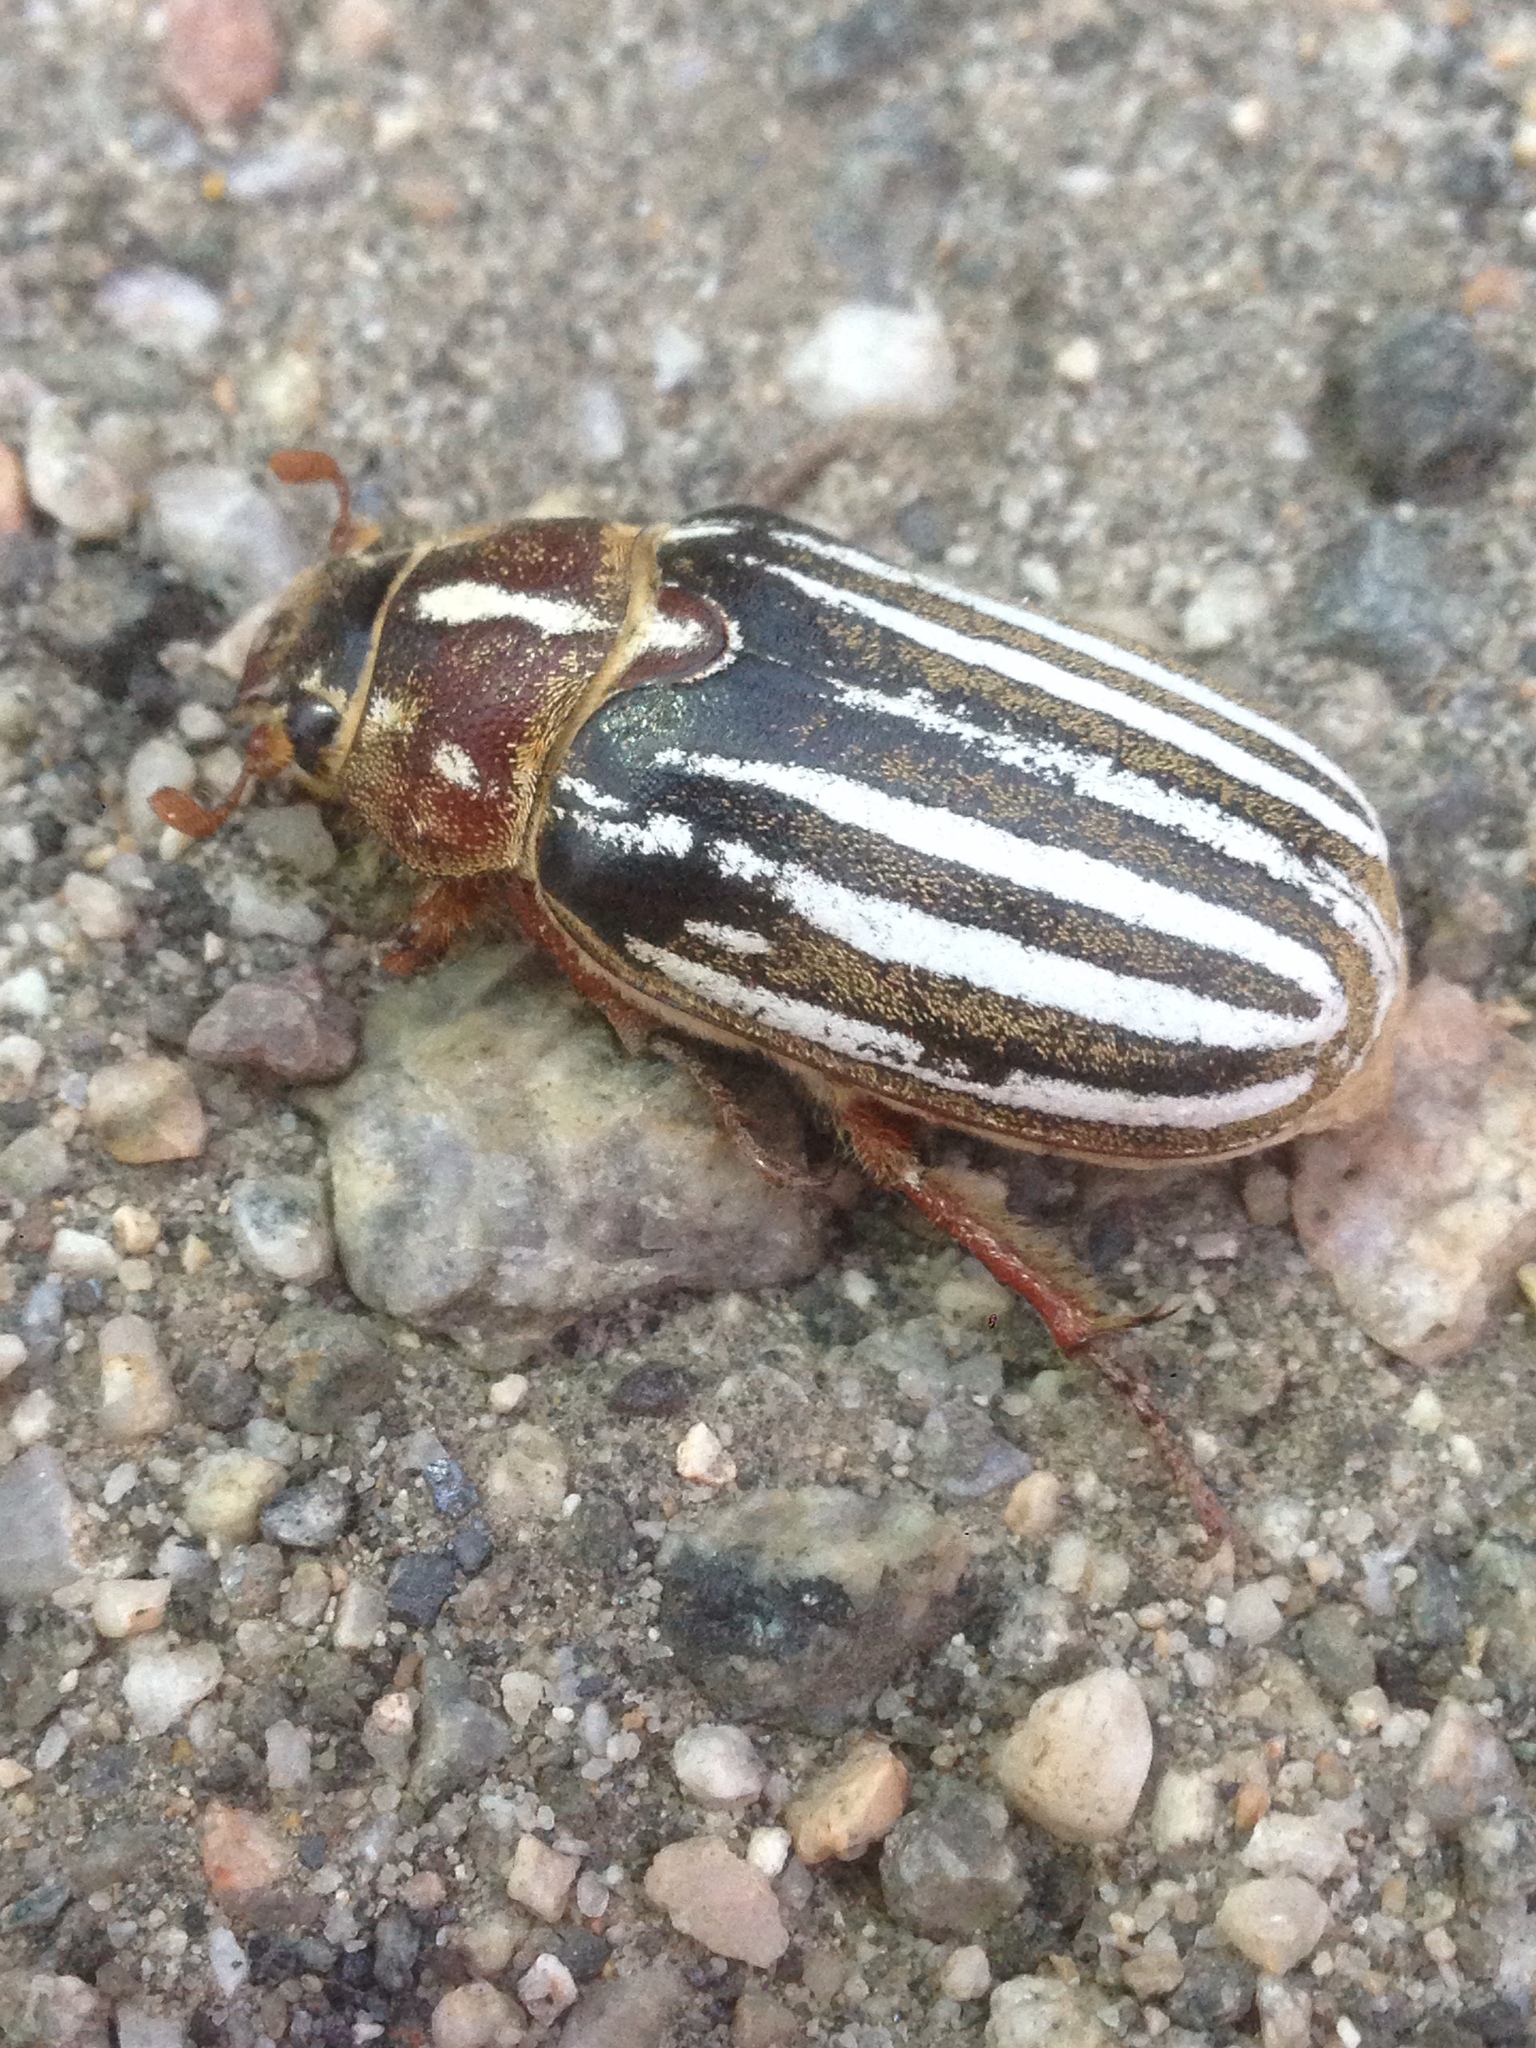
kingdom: Animalia
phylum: Arthropoda
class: Insecta
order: Coleoptera
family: Scarabaeidae
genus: Polyphylla
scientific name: Polyphylla decemlineata
